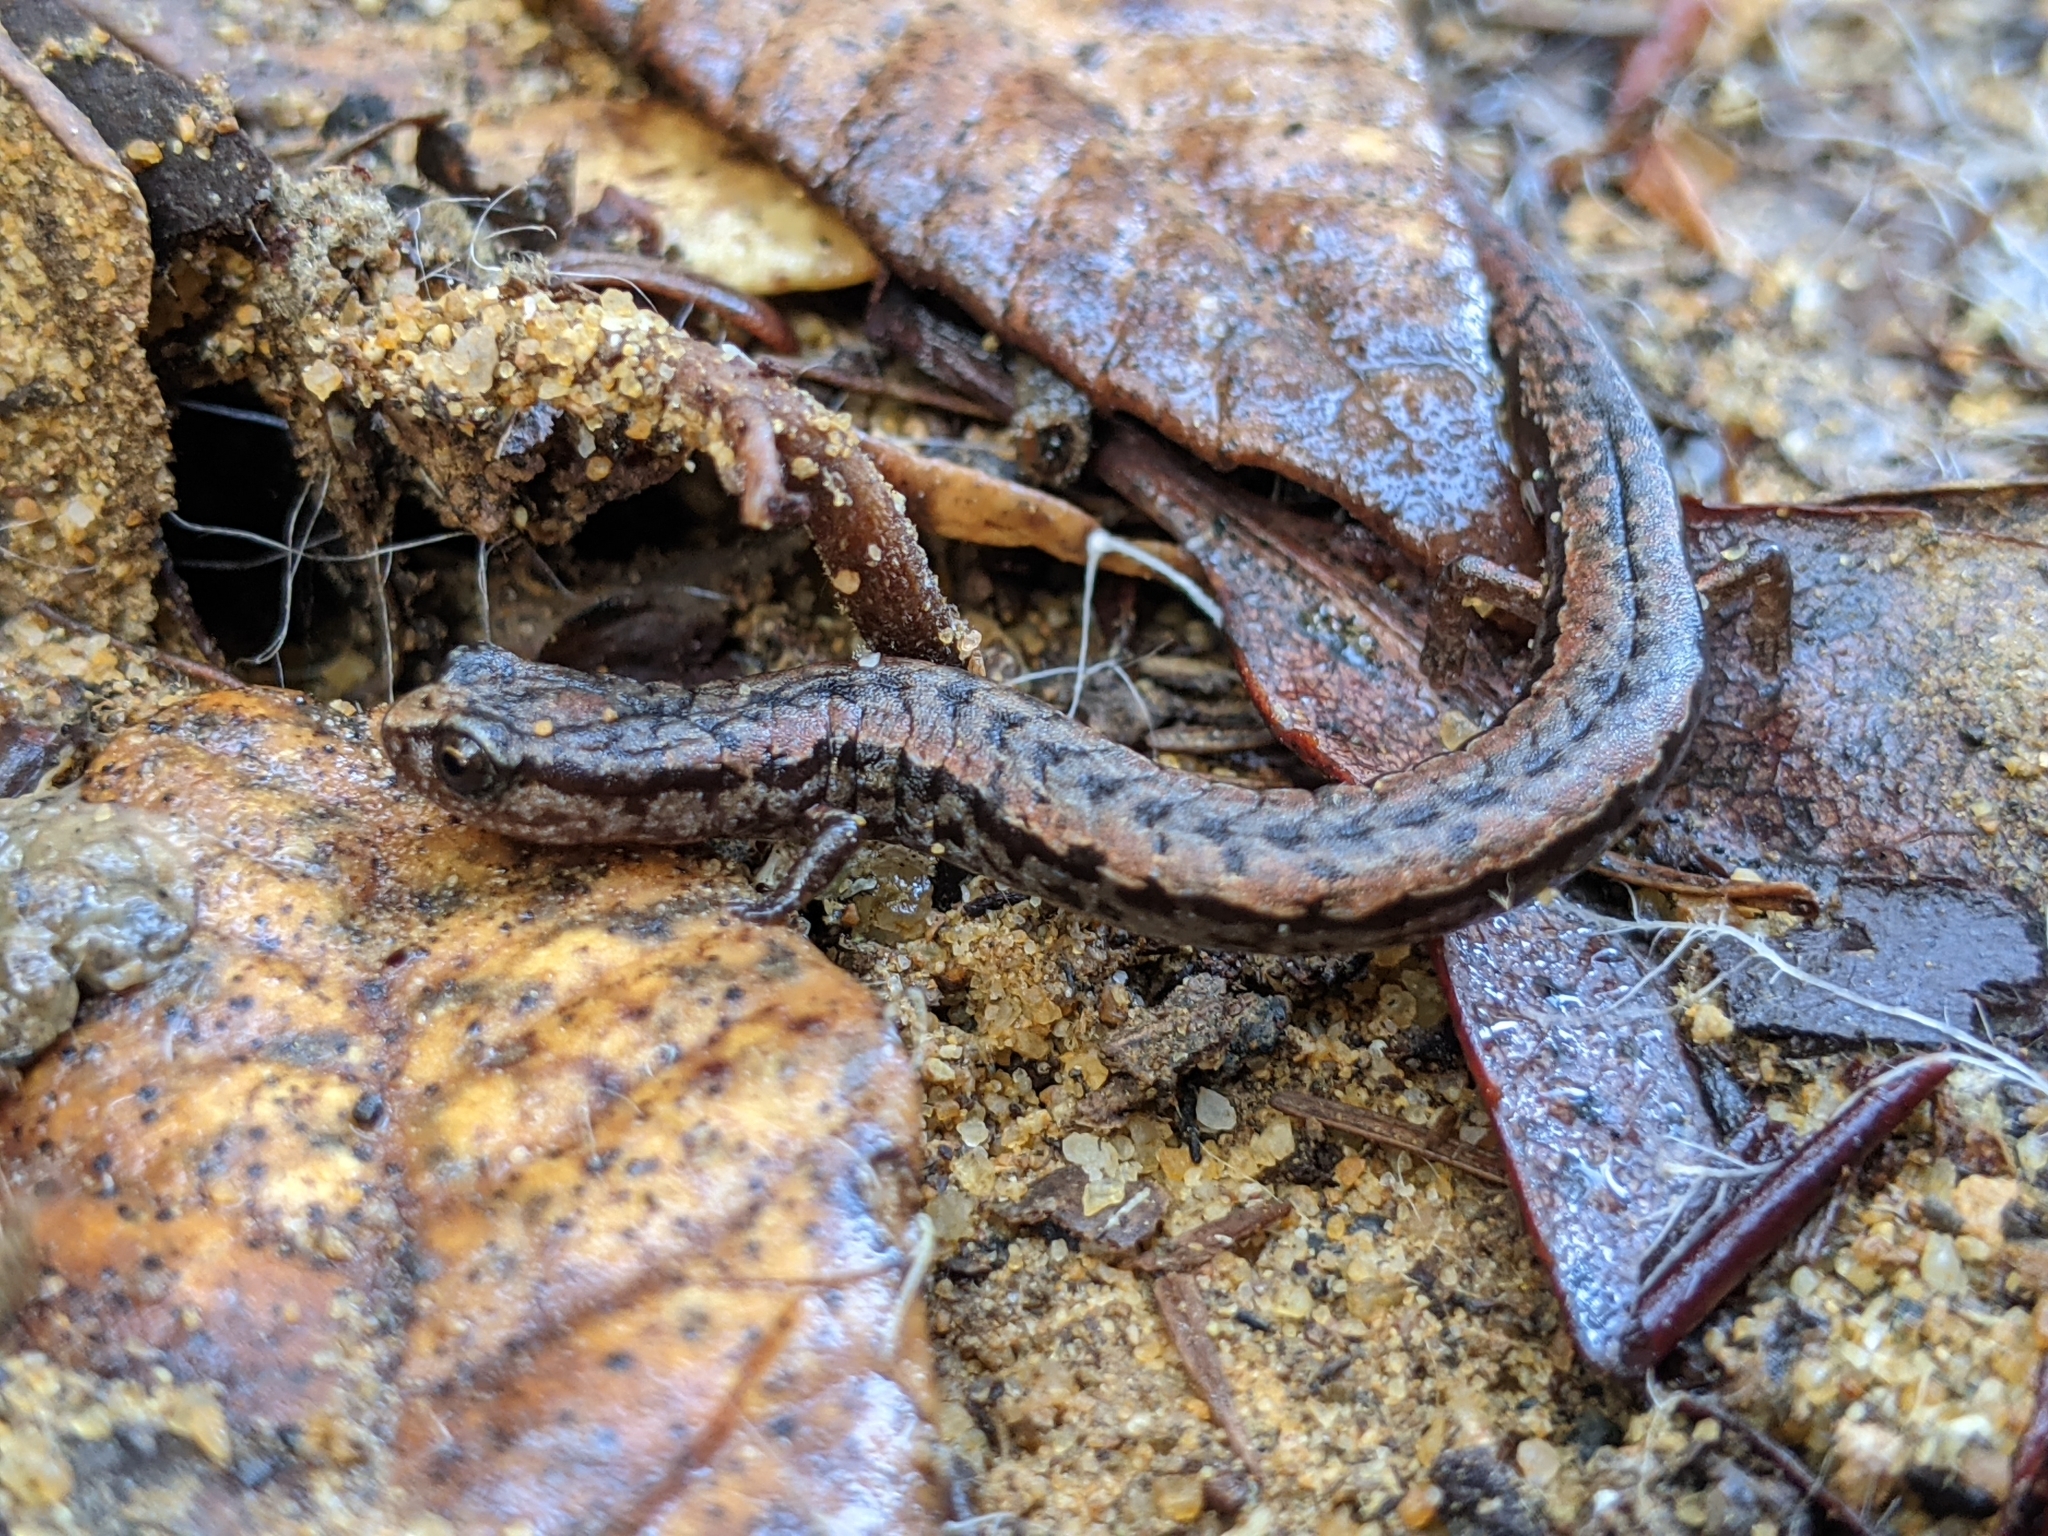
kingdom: Animalia
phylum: Chordata
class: Amphibia
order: Caudata
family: Plethodontidae
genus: Batrachoseps
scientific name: Batrachoseps attenuatus
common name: California slender salamander
